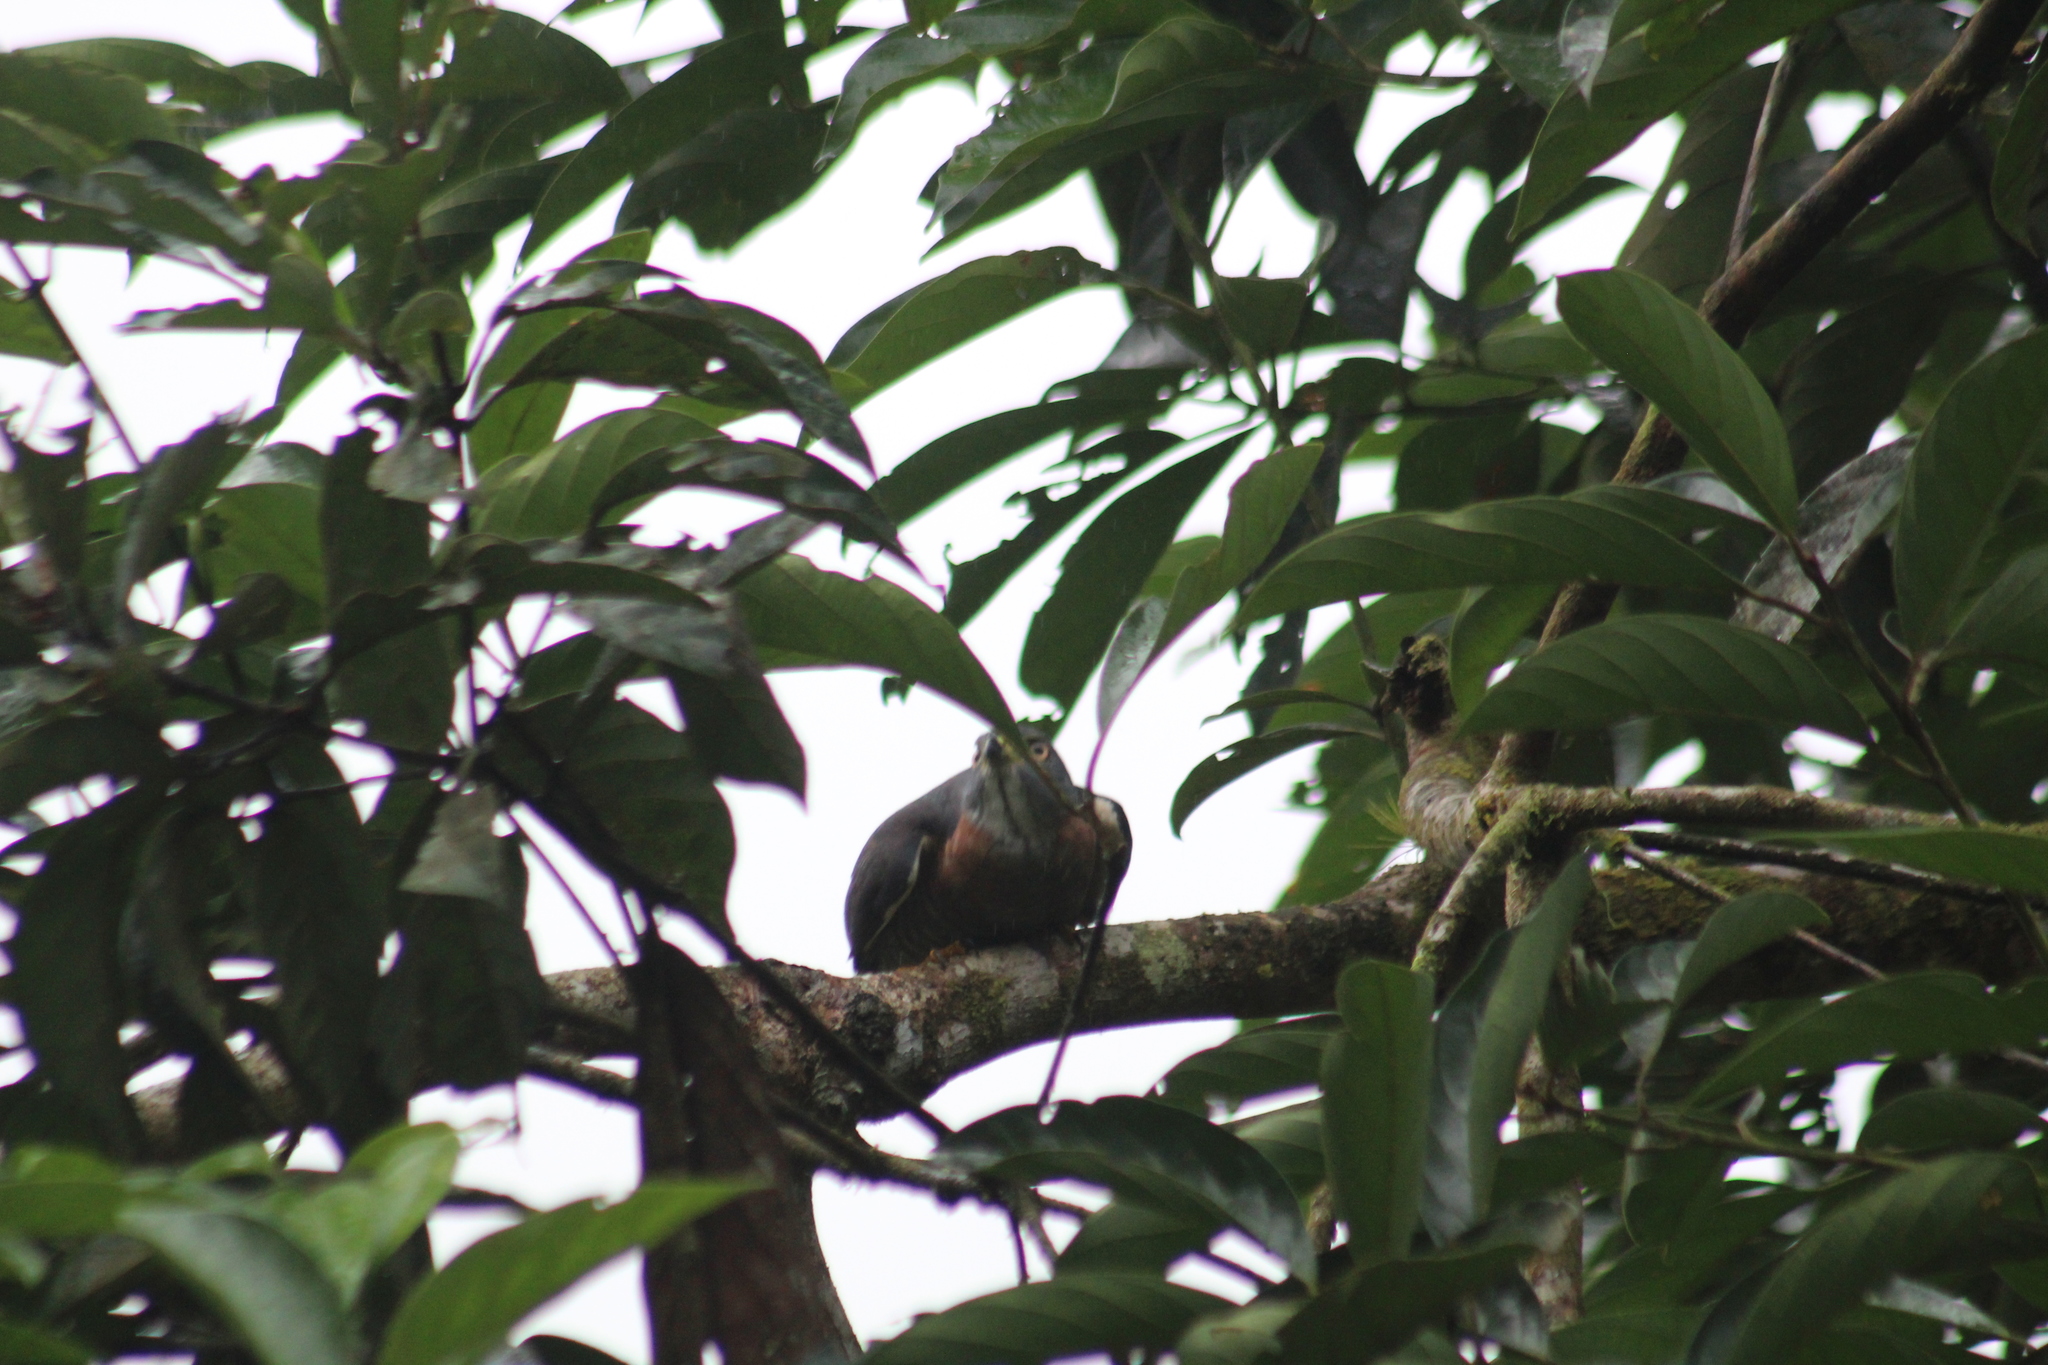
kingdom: Animalia
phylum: Chordata
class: Aves
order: Accipitriformes
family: Accipitridae
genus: Harpagus
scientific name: Harpagus bidentatus
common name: Double-toothed kite
